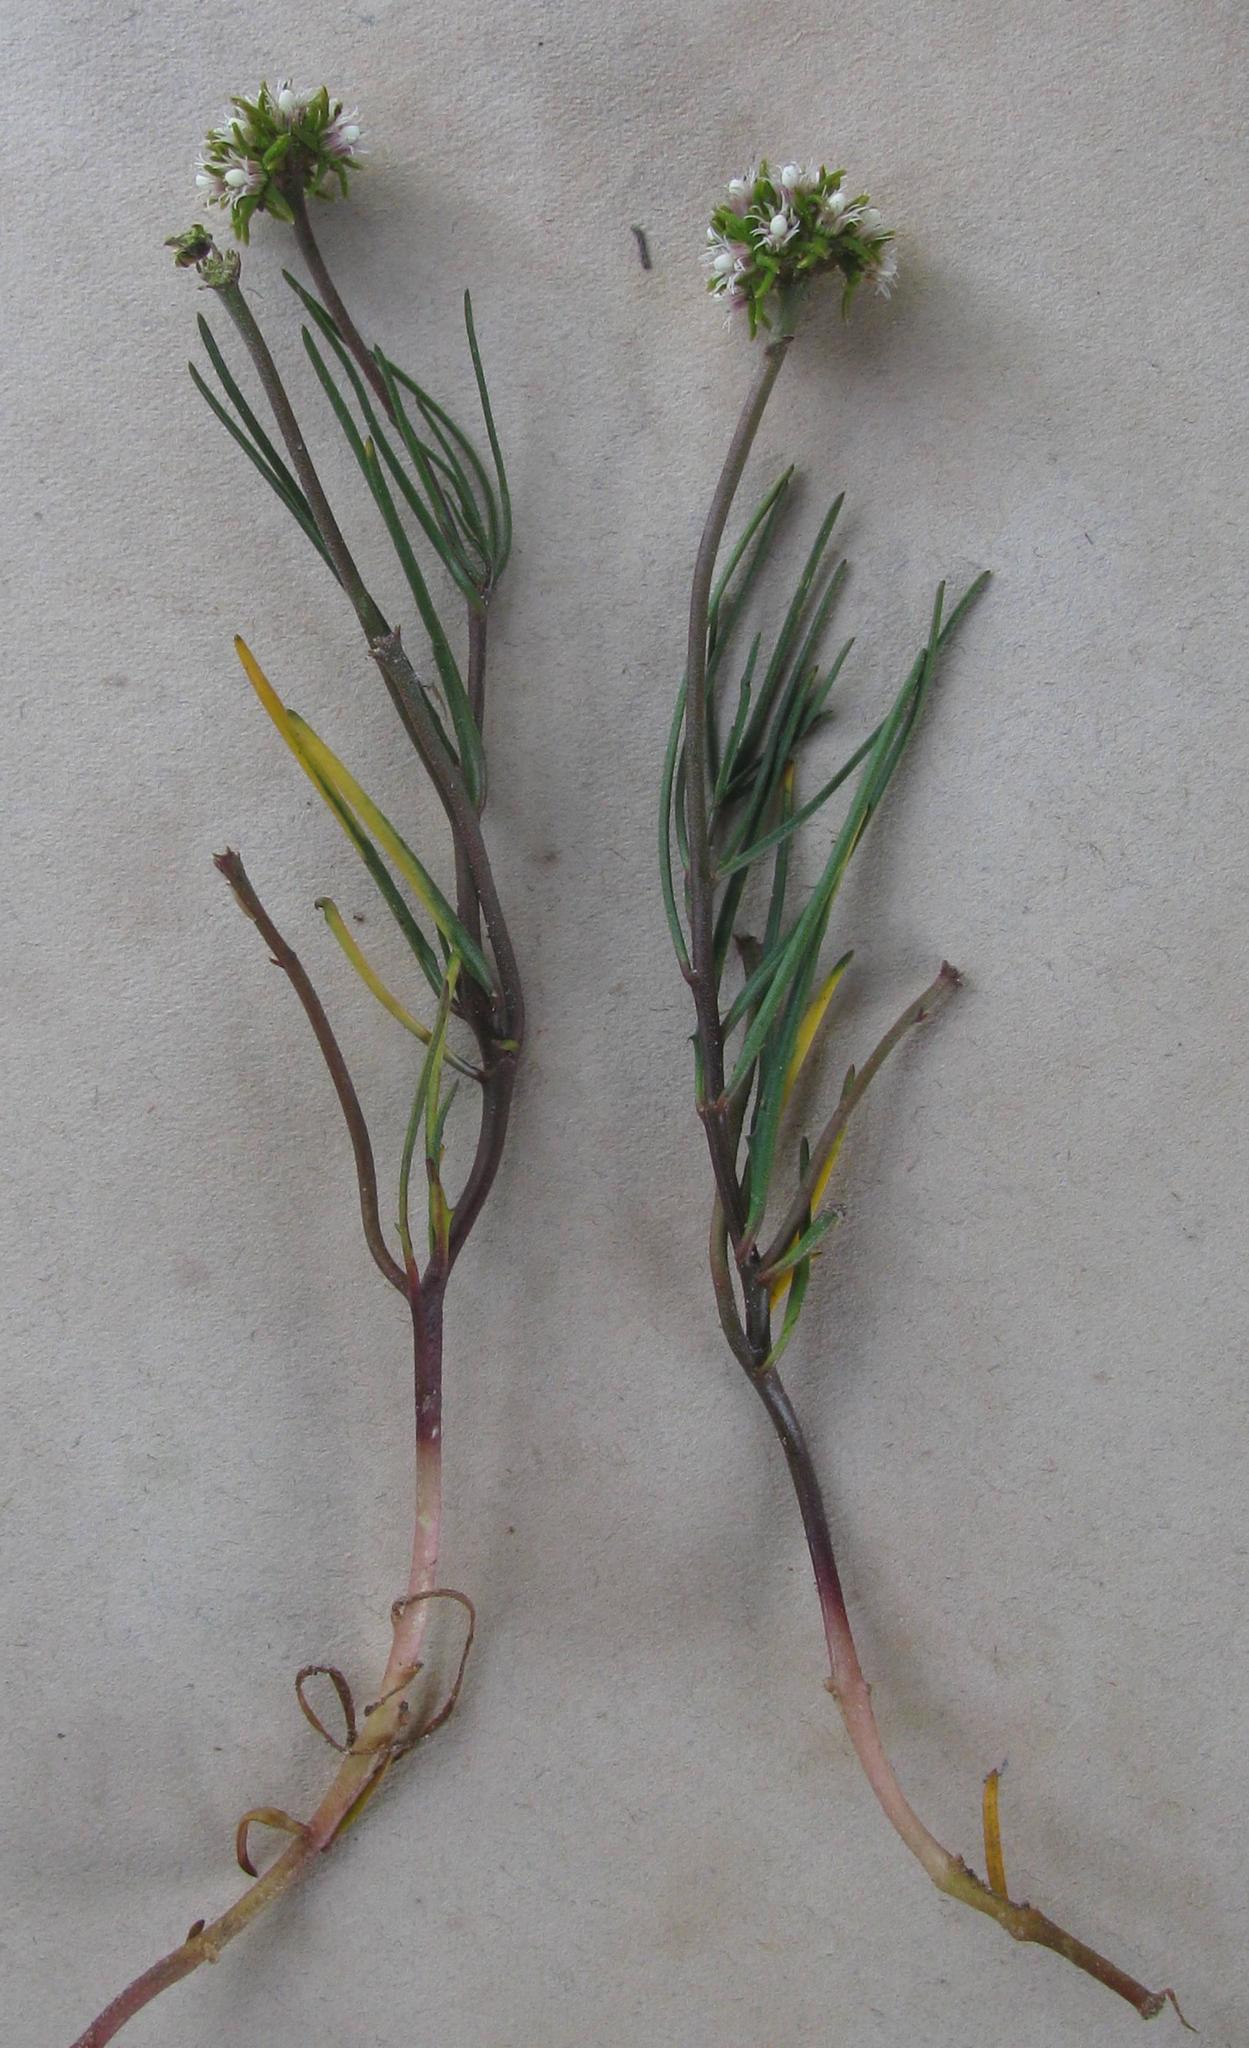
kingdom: Plantae
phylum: Tracheophyta
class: Magnoliopsida
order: Gentianales
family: Apocynaceae
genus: Eustegia
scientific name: Eustegia minuta
